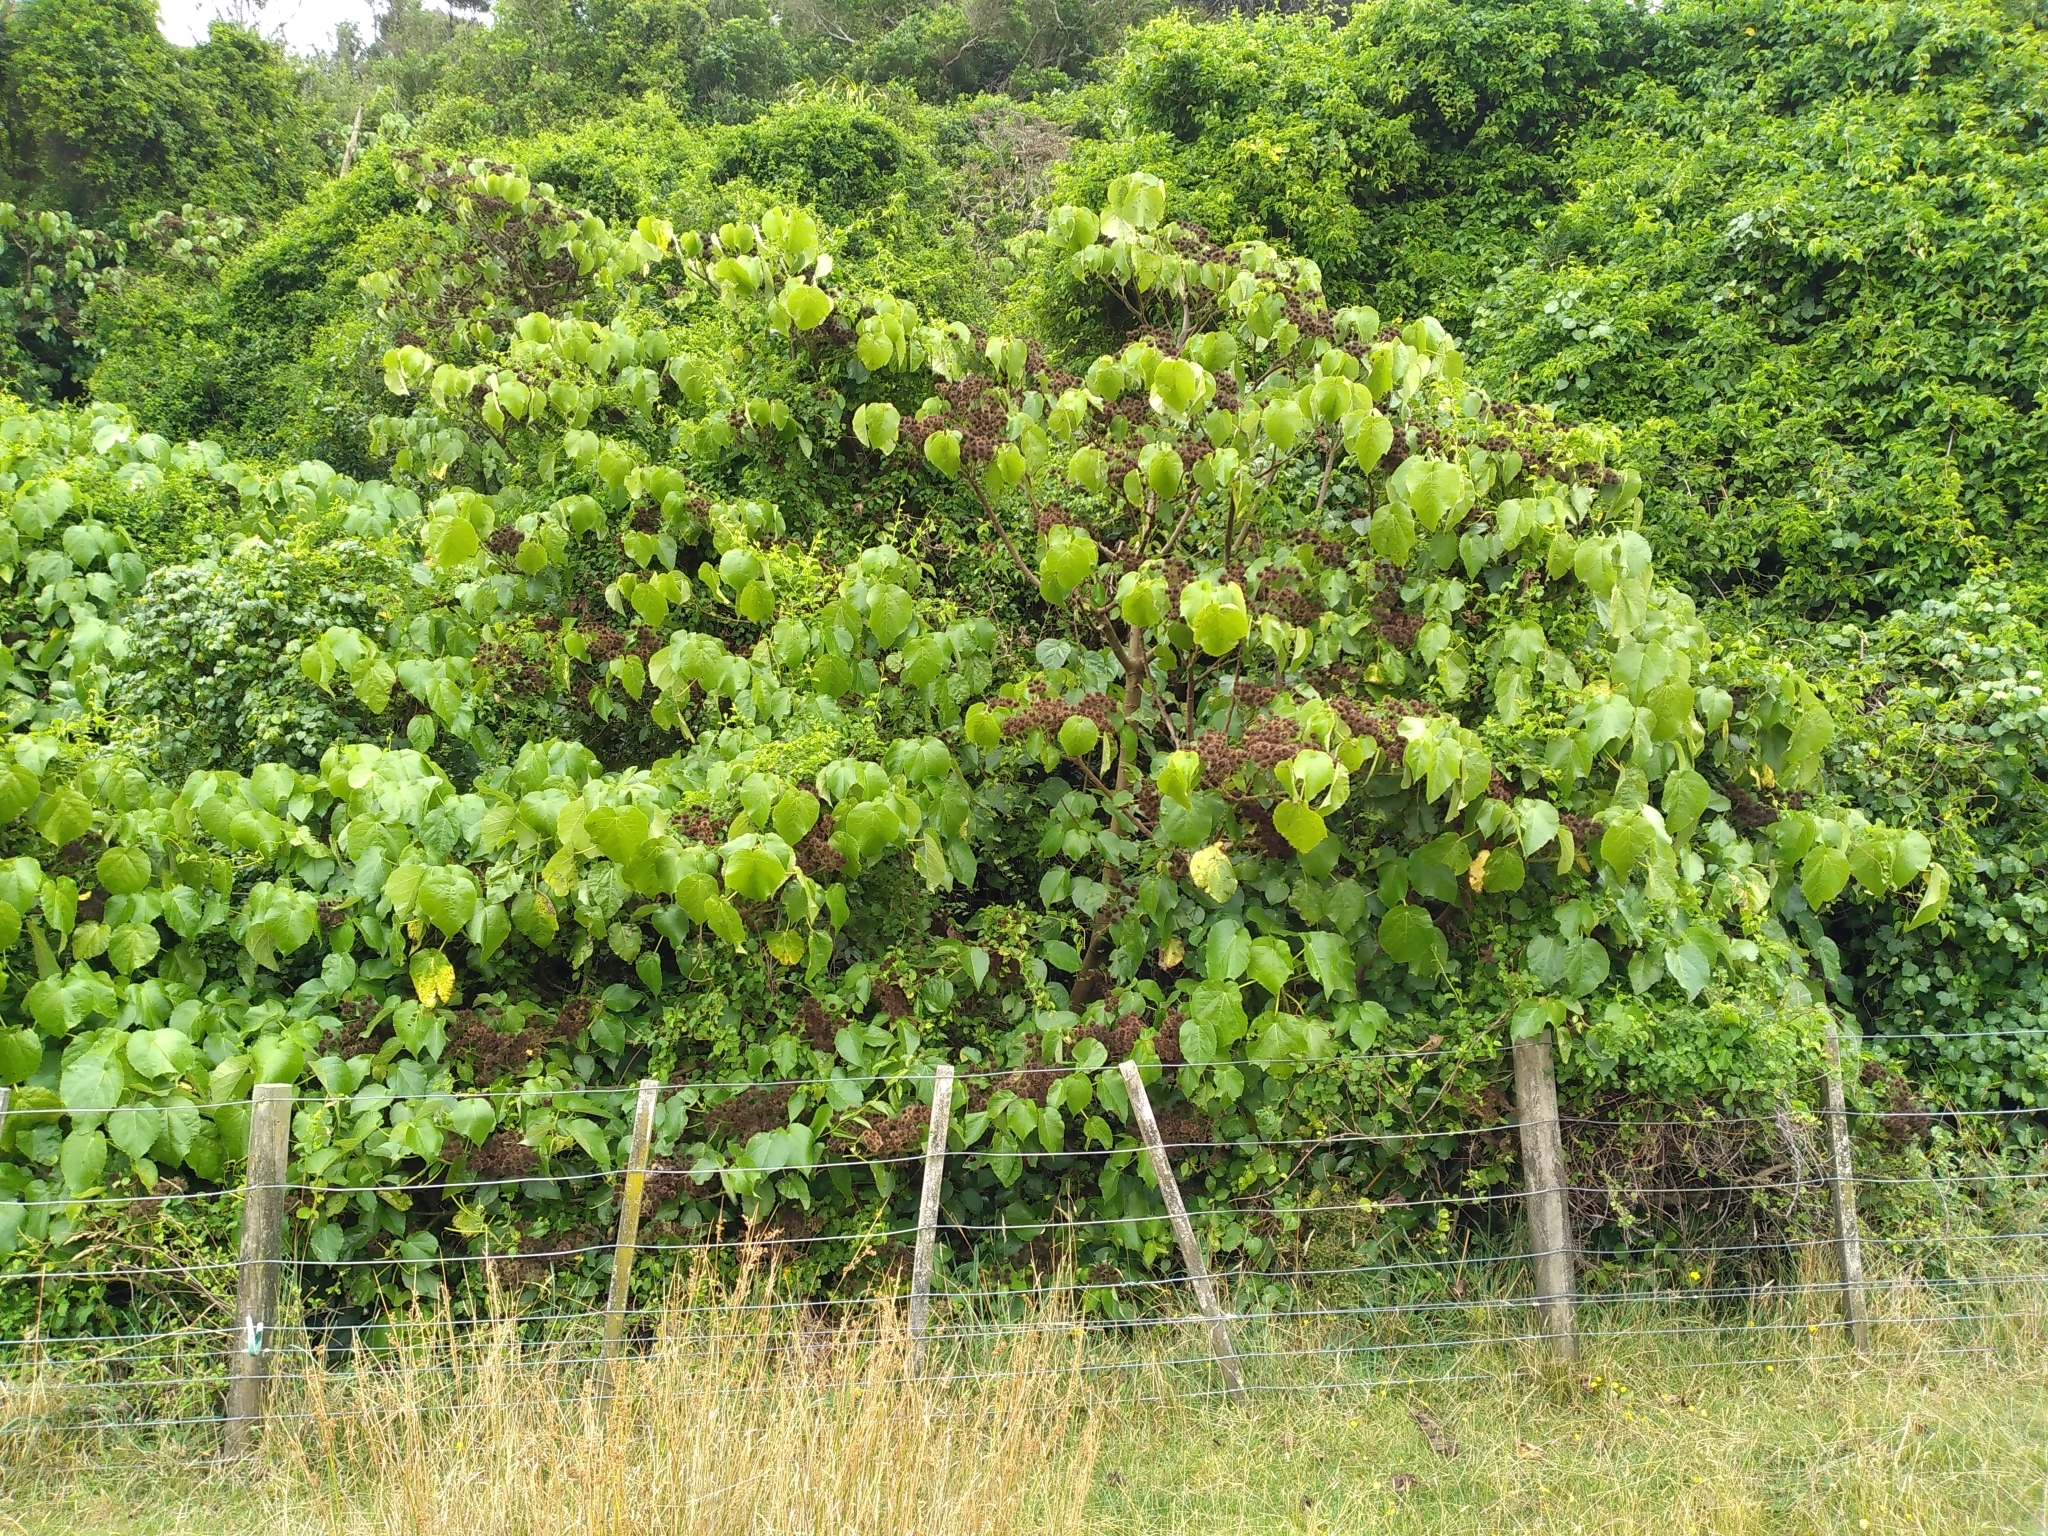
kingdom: Plantae
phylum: Tracheophyta
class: Magnoliopsida
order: Malvales
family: Malvaceae
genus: Entelea
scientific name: Entelea arborescens
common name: New zealand-mulberry
